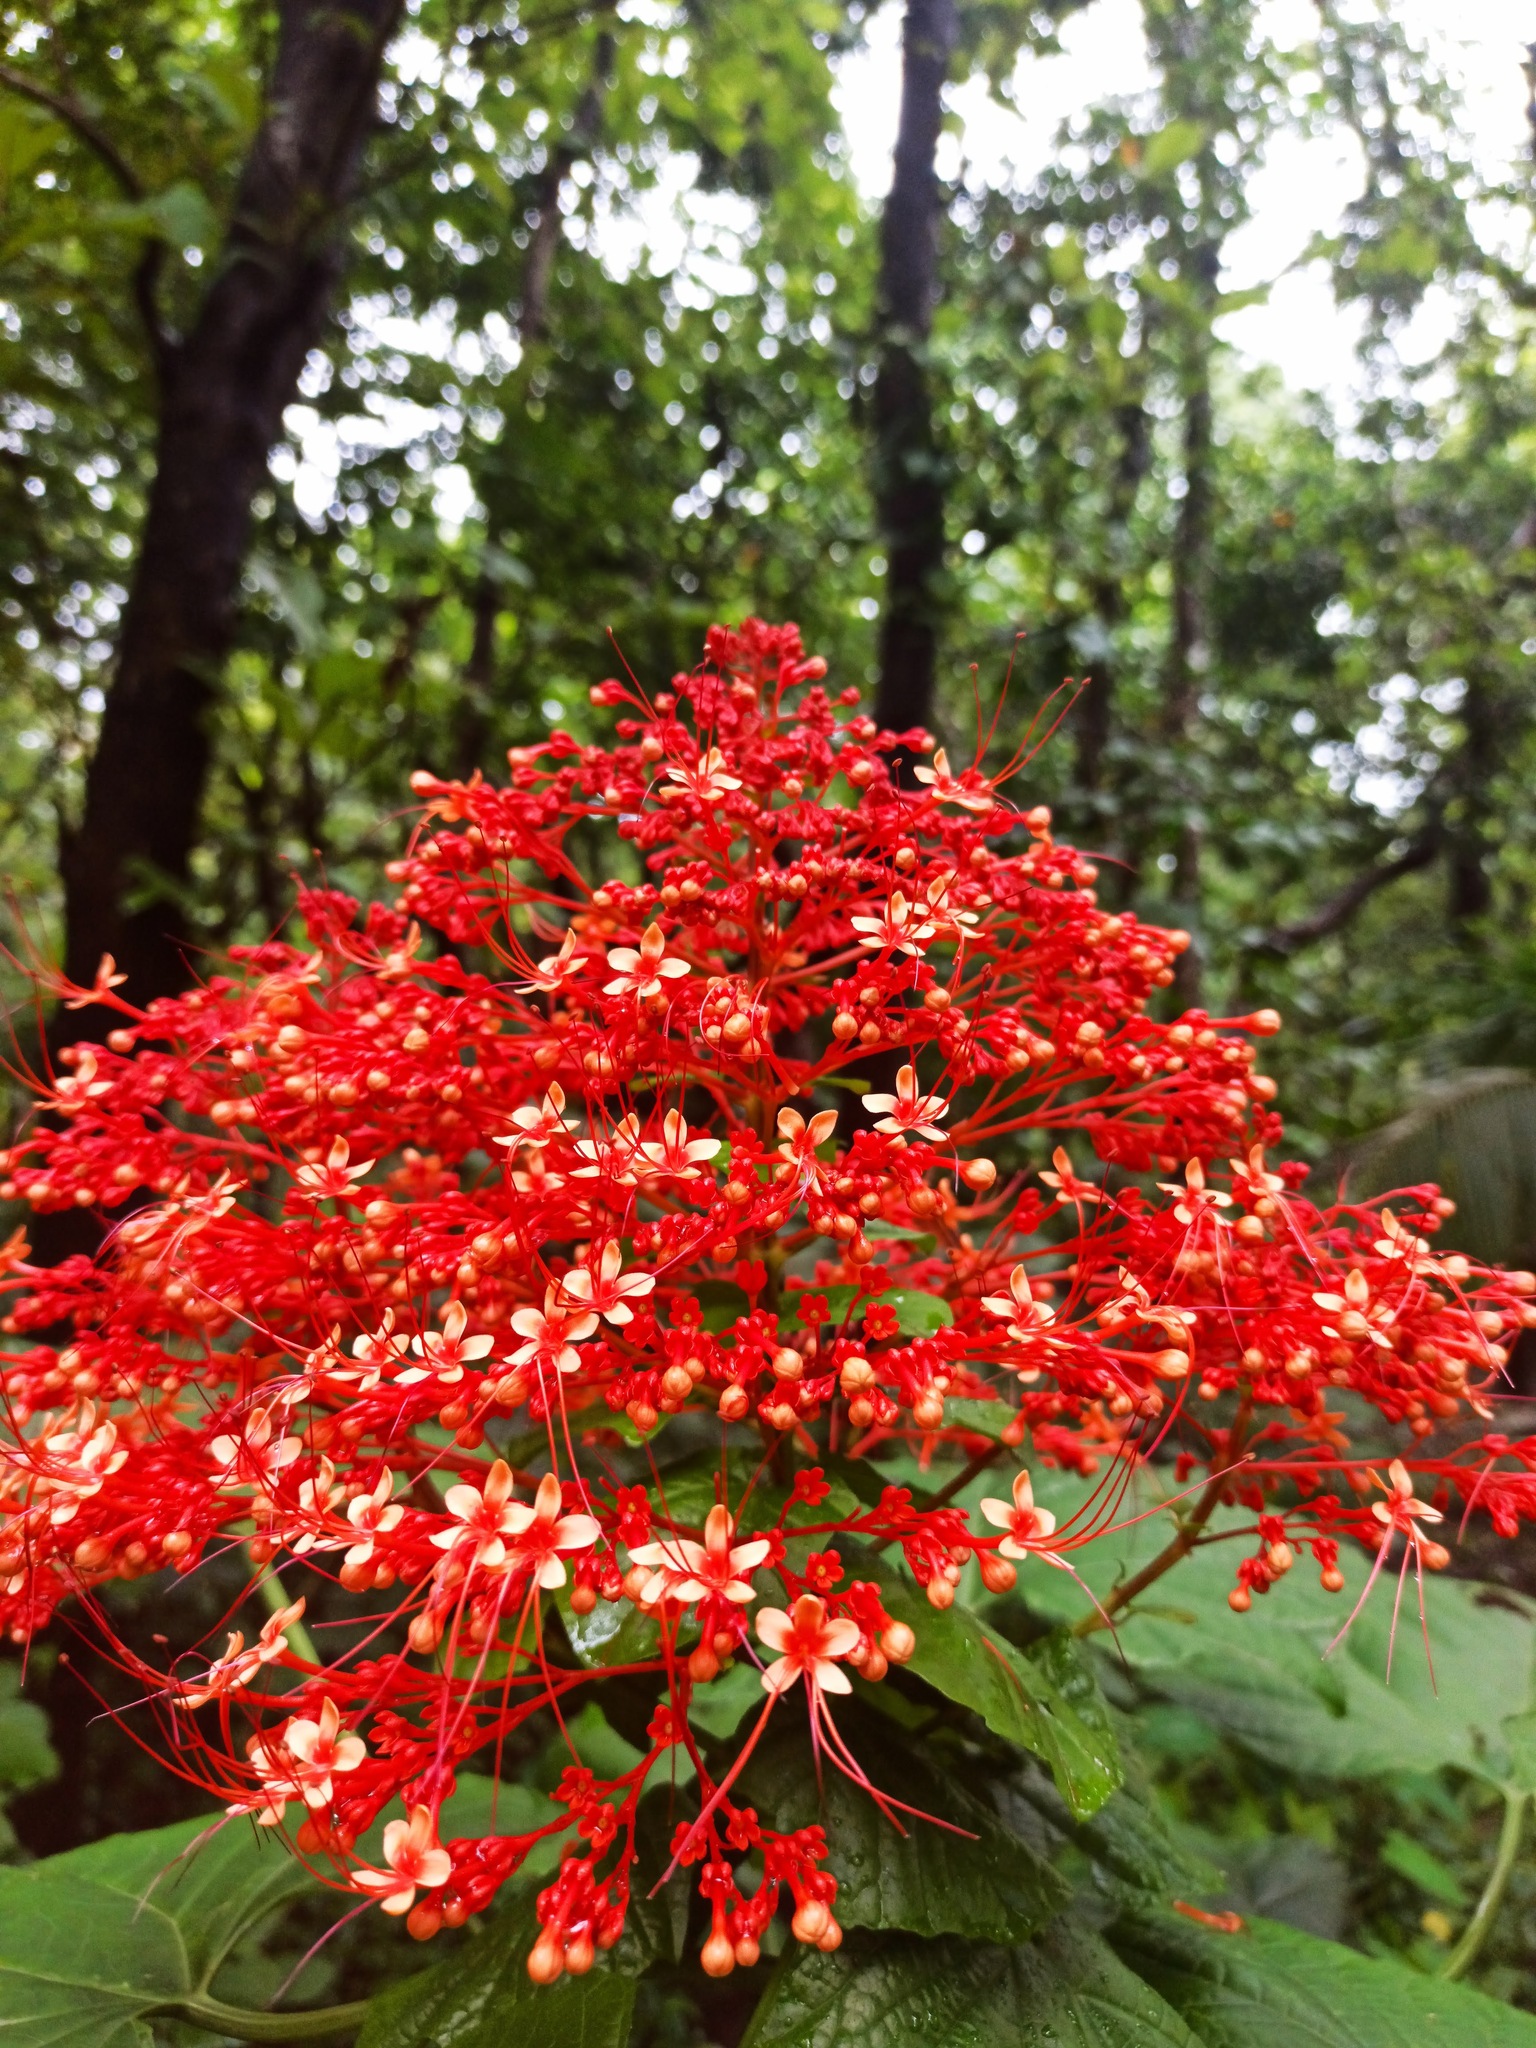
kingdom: Plantae
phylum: Tracheophyta
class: Magnoliopsida
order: Lamiales
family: Lamiaceae
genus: Clerodendrum
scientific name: Clerodendrum paniculatum
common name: Pagoda-flower
